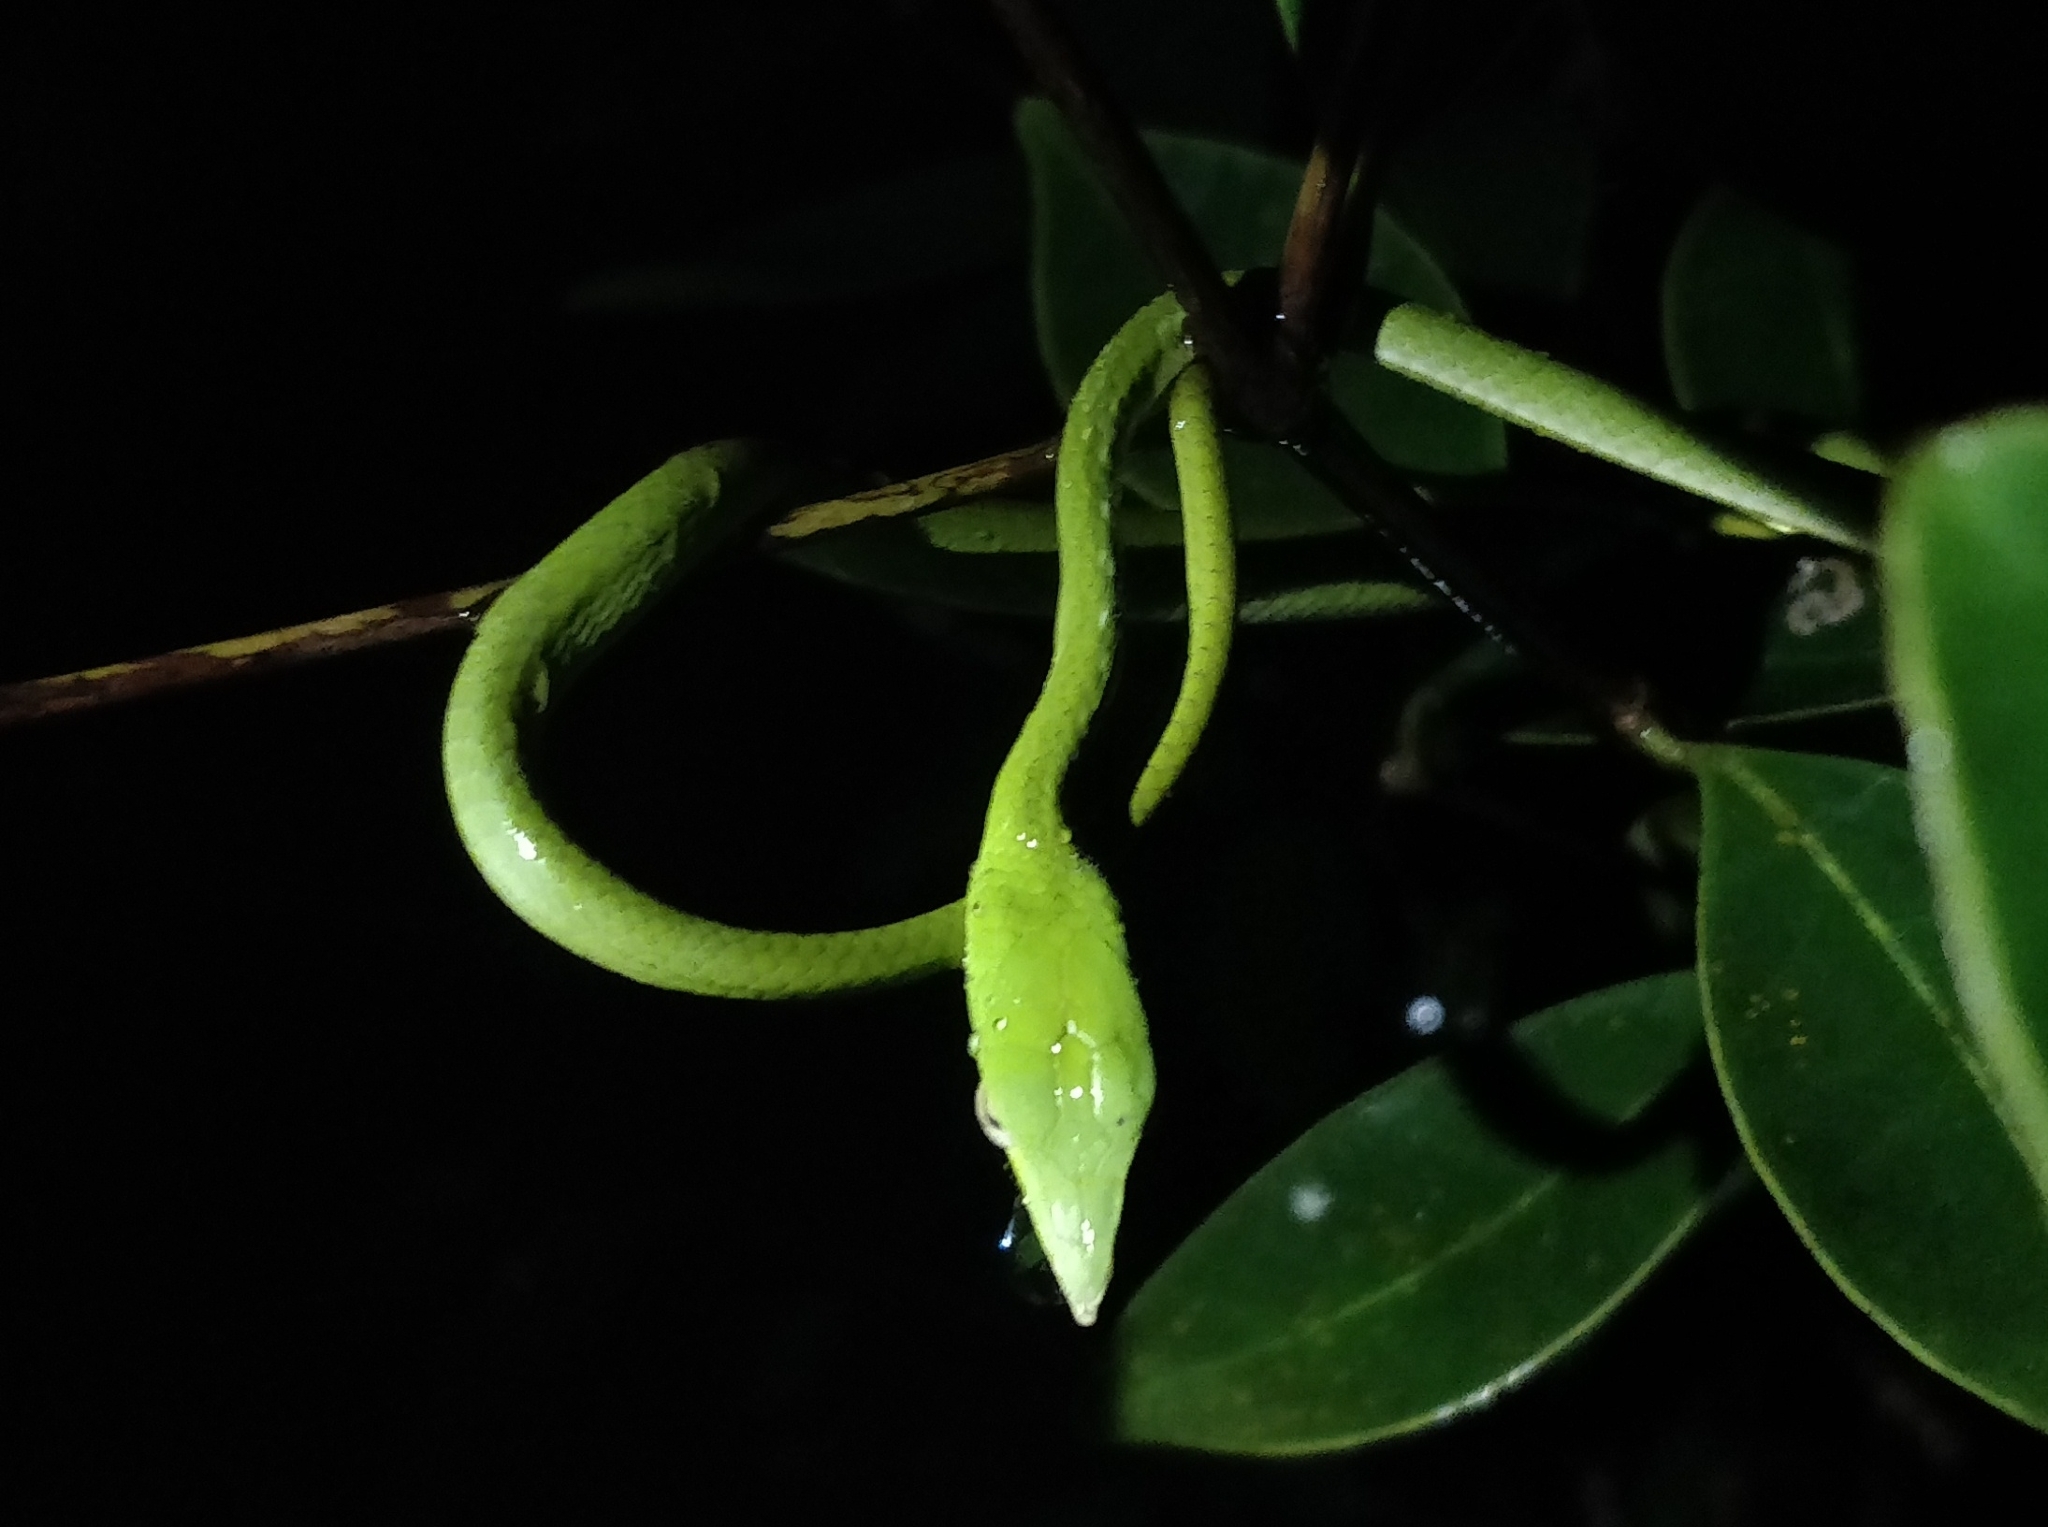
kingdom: Animalia
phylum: Chordata
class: Squamata
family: Colubridae
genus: Ahaetulla
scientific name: Ahaetulla borealis
